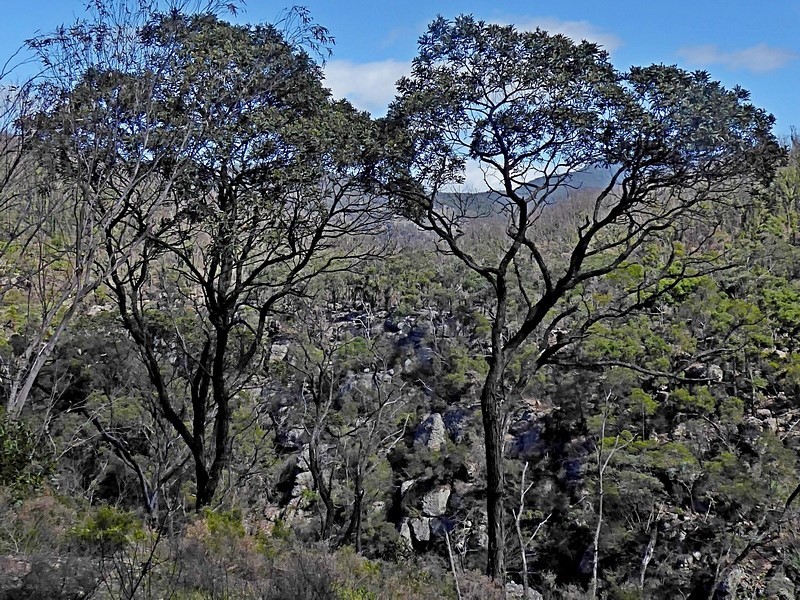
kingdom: Plantae
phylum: Tracheophyta
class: Magnoliopsida
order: Fabales
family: Fabaceae
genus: Acacia
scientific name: Acacia georgensis
